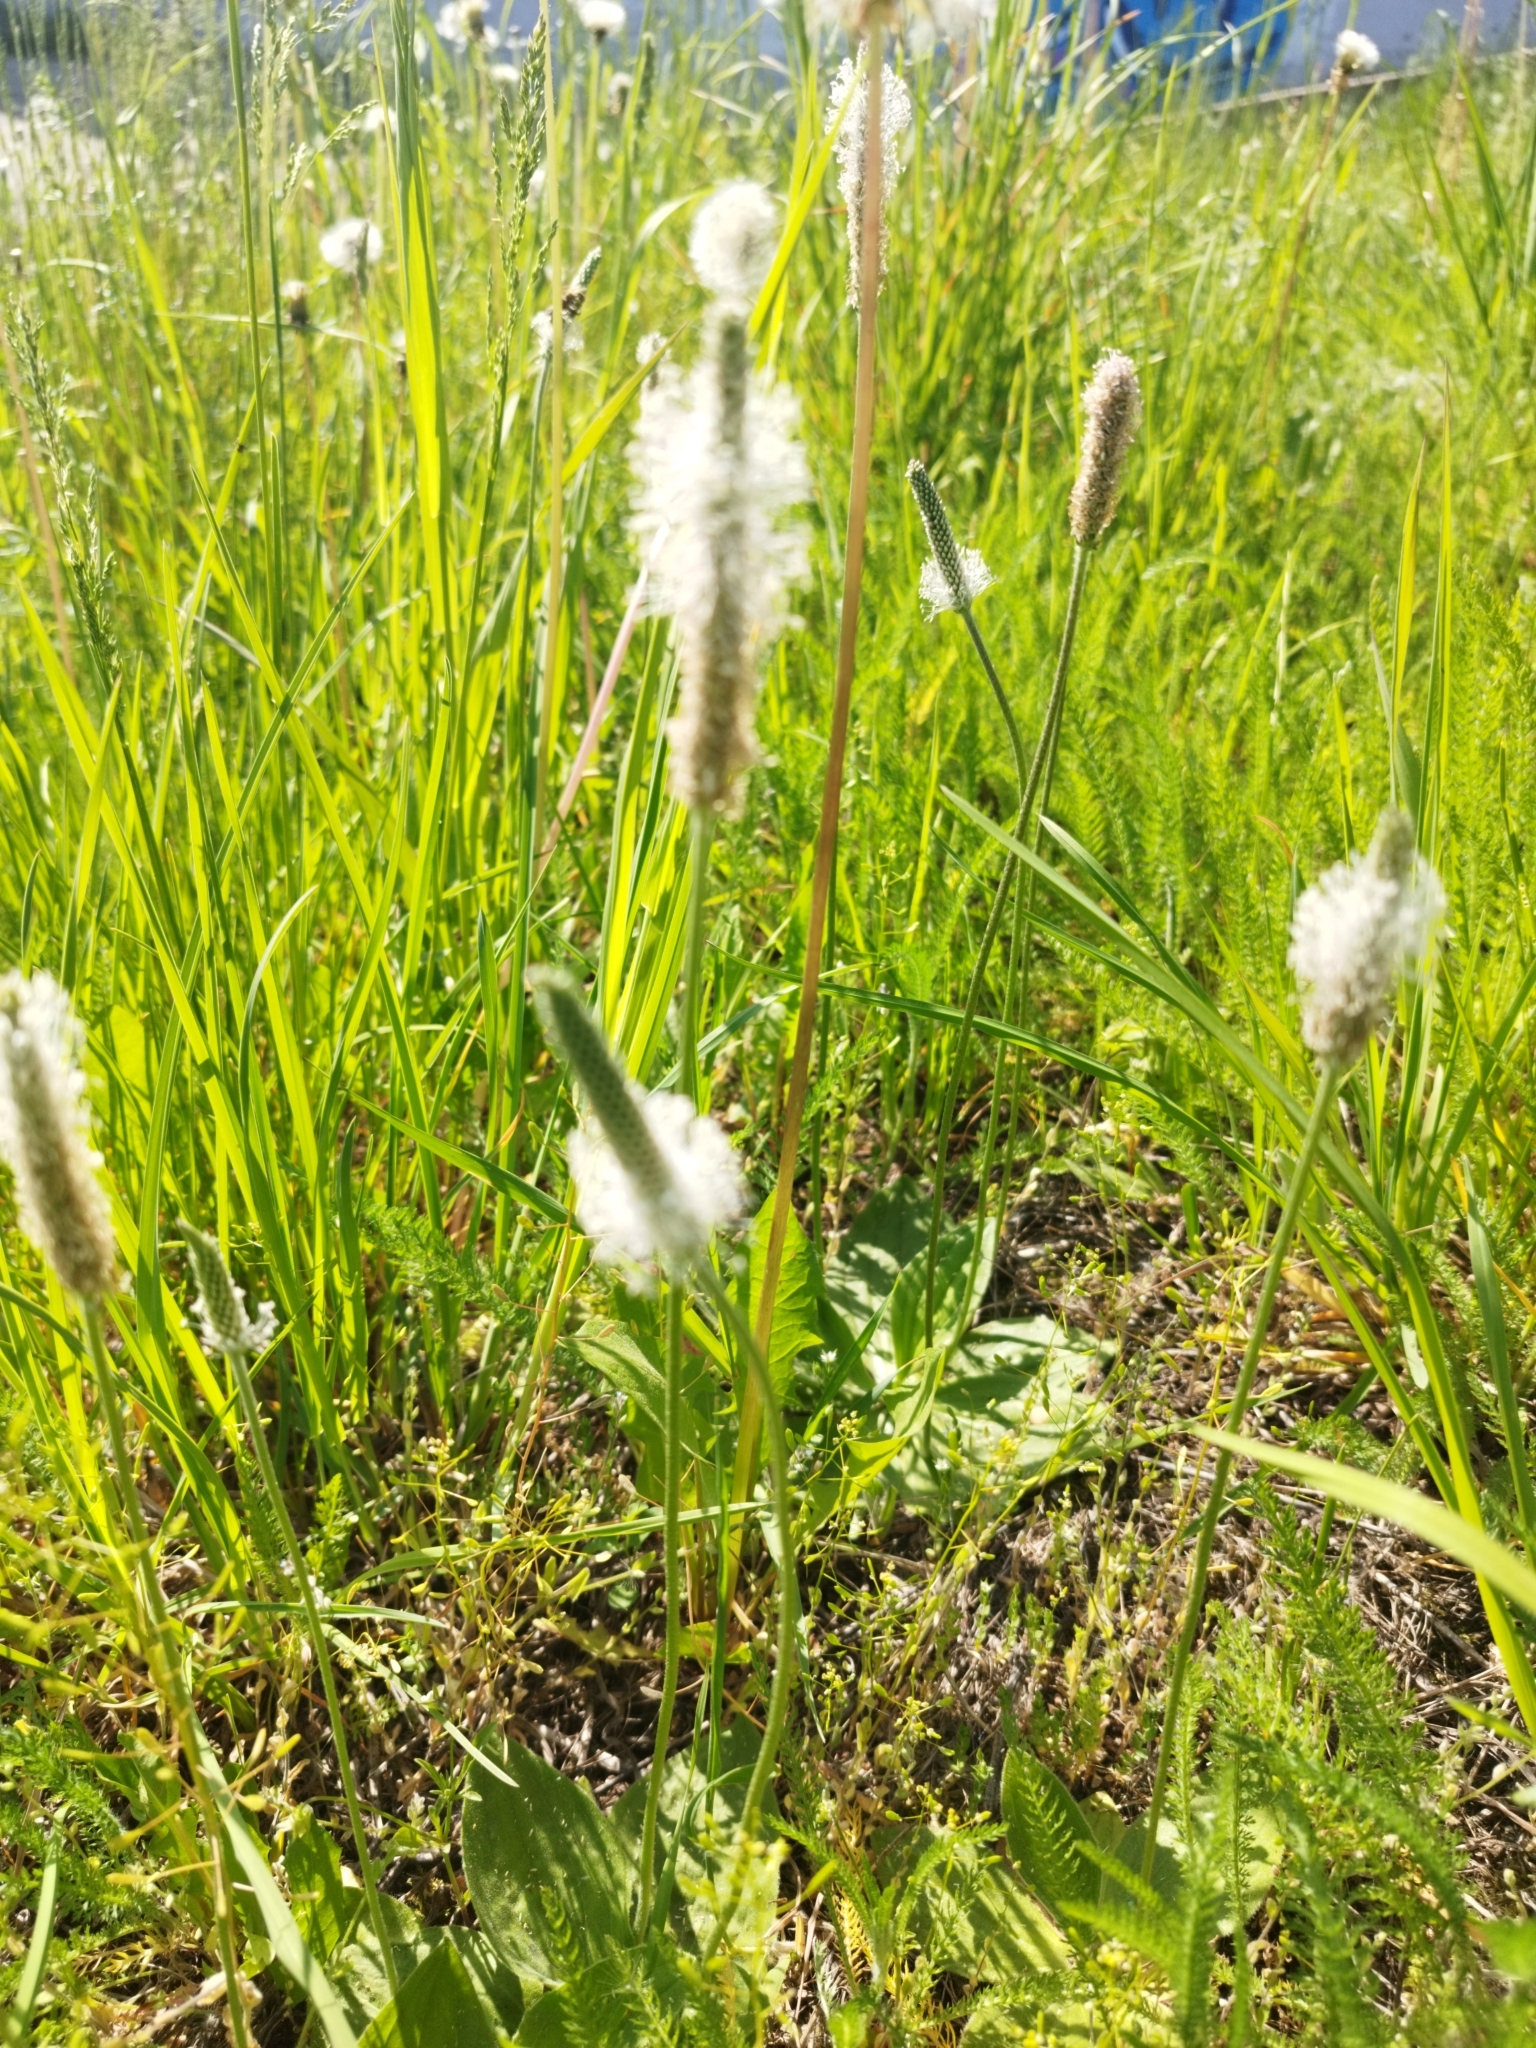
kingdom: Plantae
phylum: Tracheophyta
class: Magnoliopsida
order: Lamiales
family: Plantaginaceae
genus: Plantago
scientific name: Plantago media
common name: Hoary plantain
